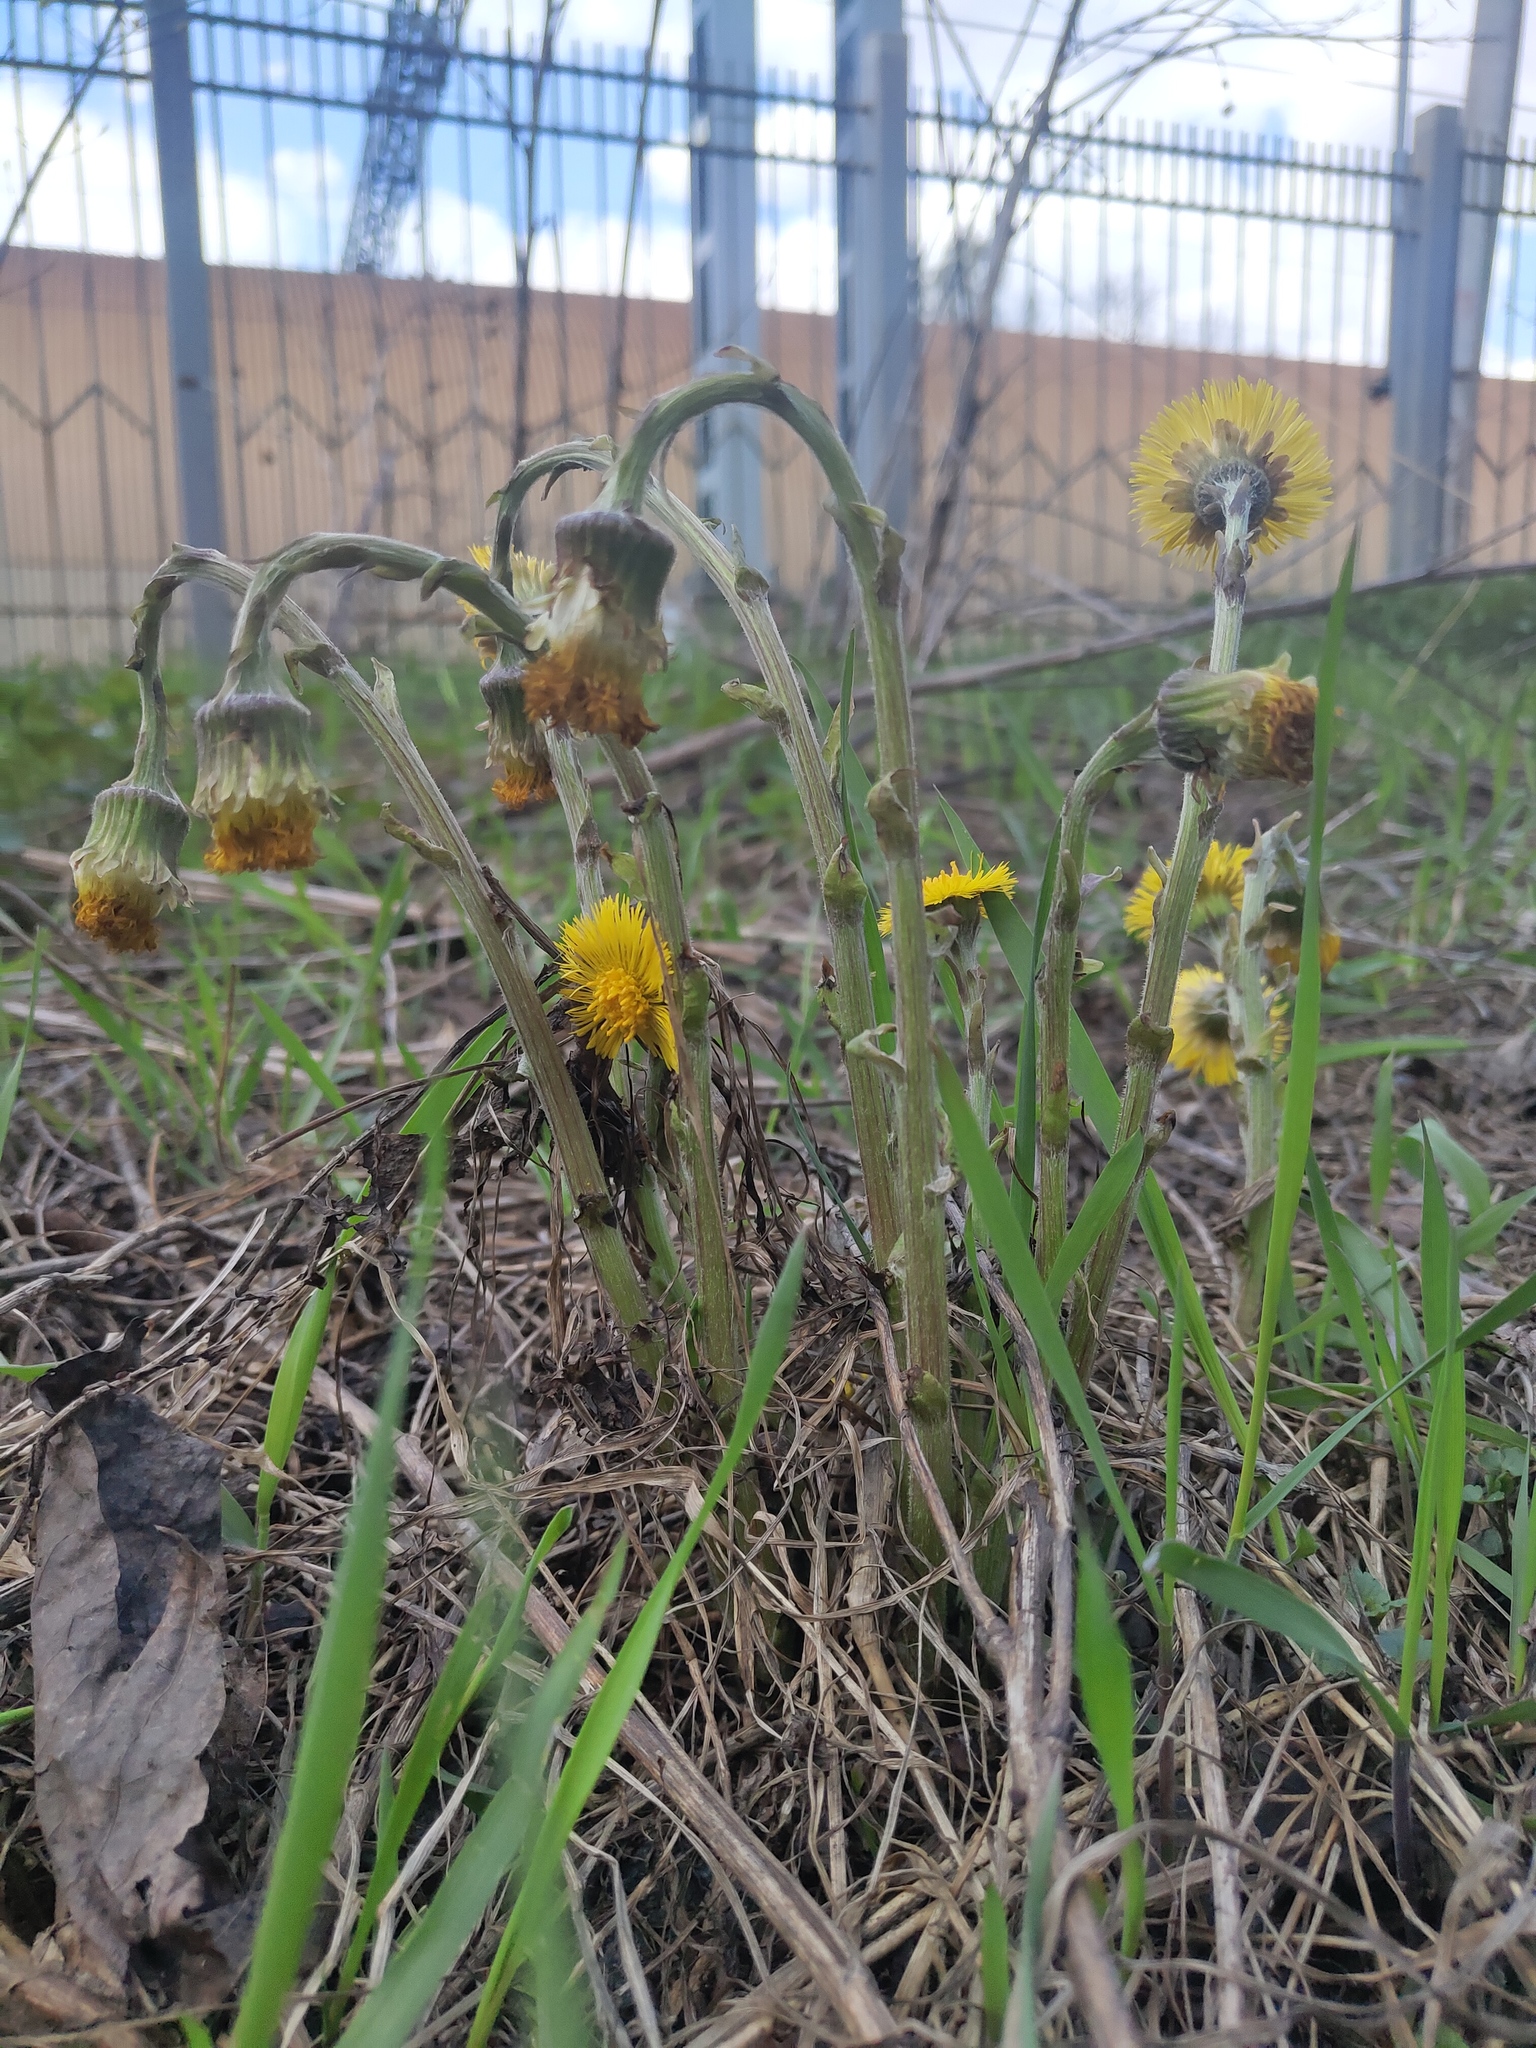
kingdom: Plantae
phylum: Tracheophyta
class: Magnoliopsida
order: Asterales
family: Asteraceae
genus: Tussilago
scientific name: Tussilago farfara
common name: Coltsfoot
